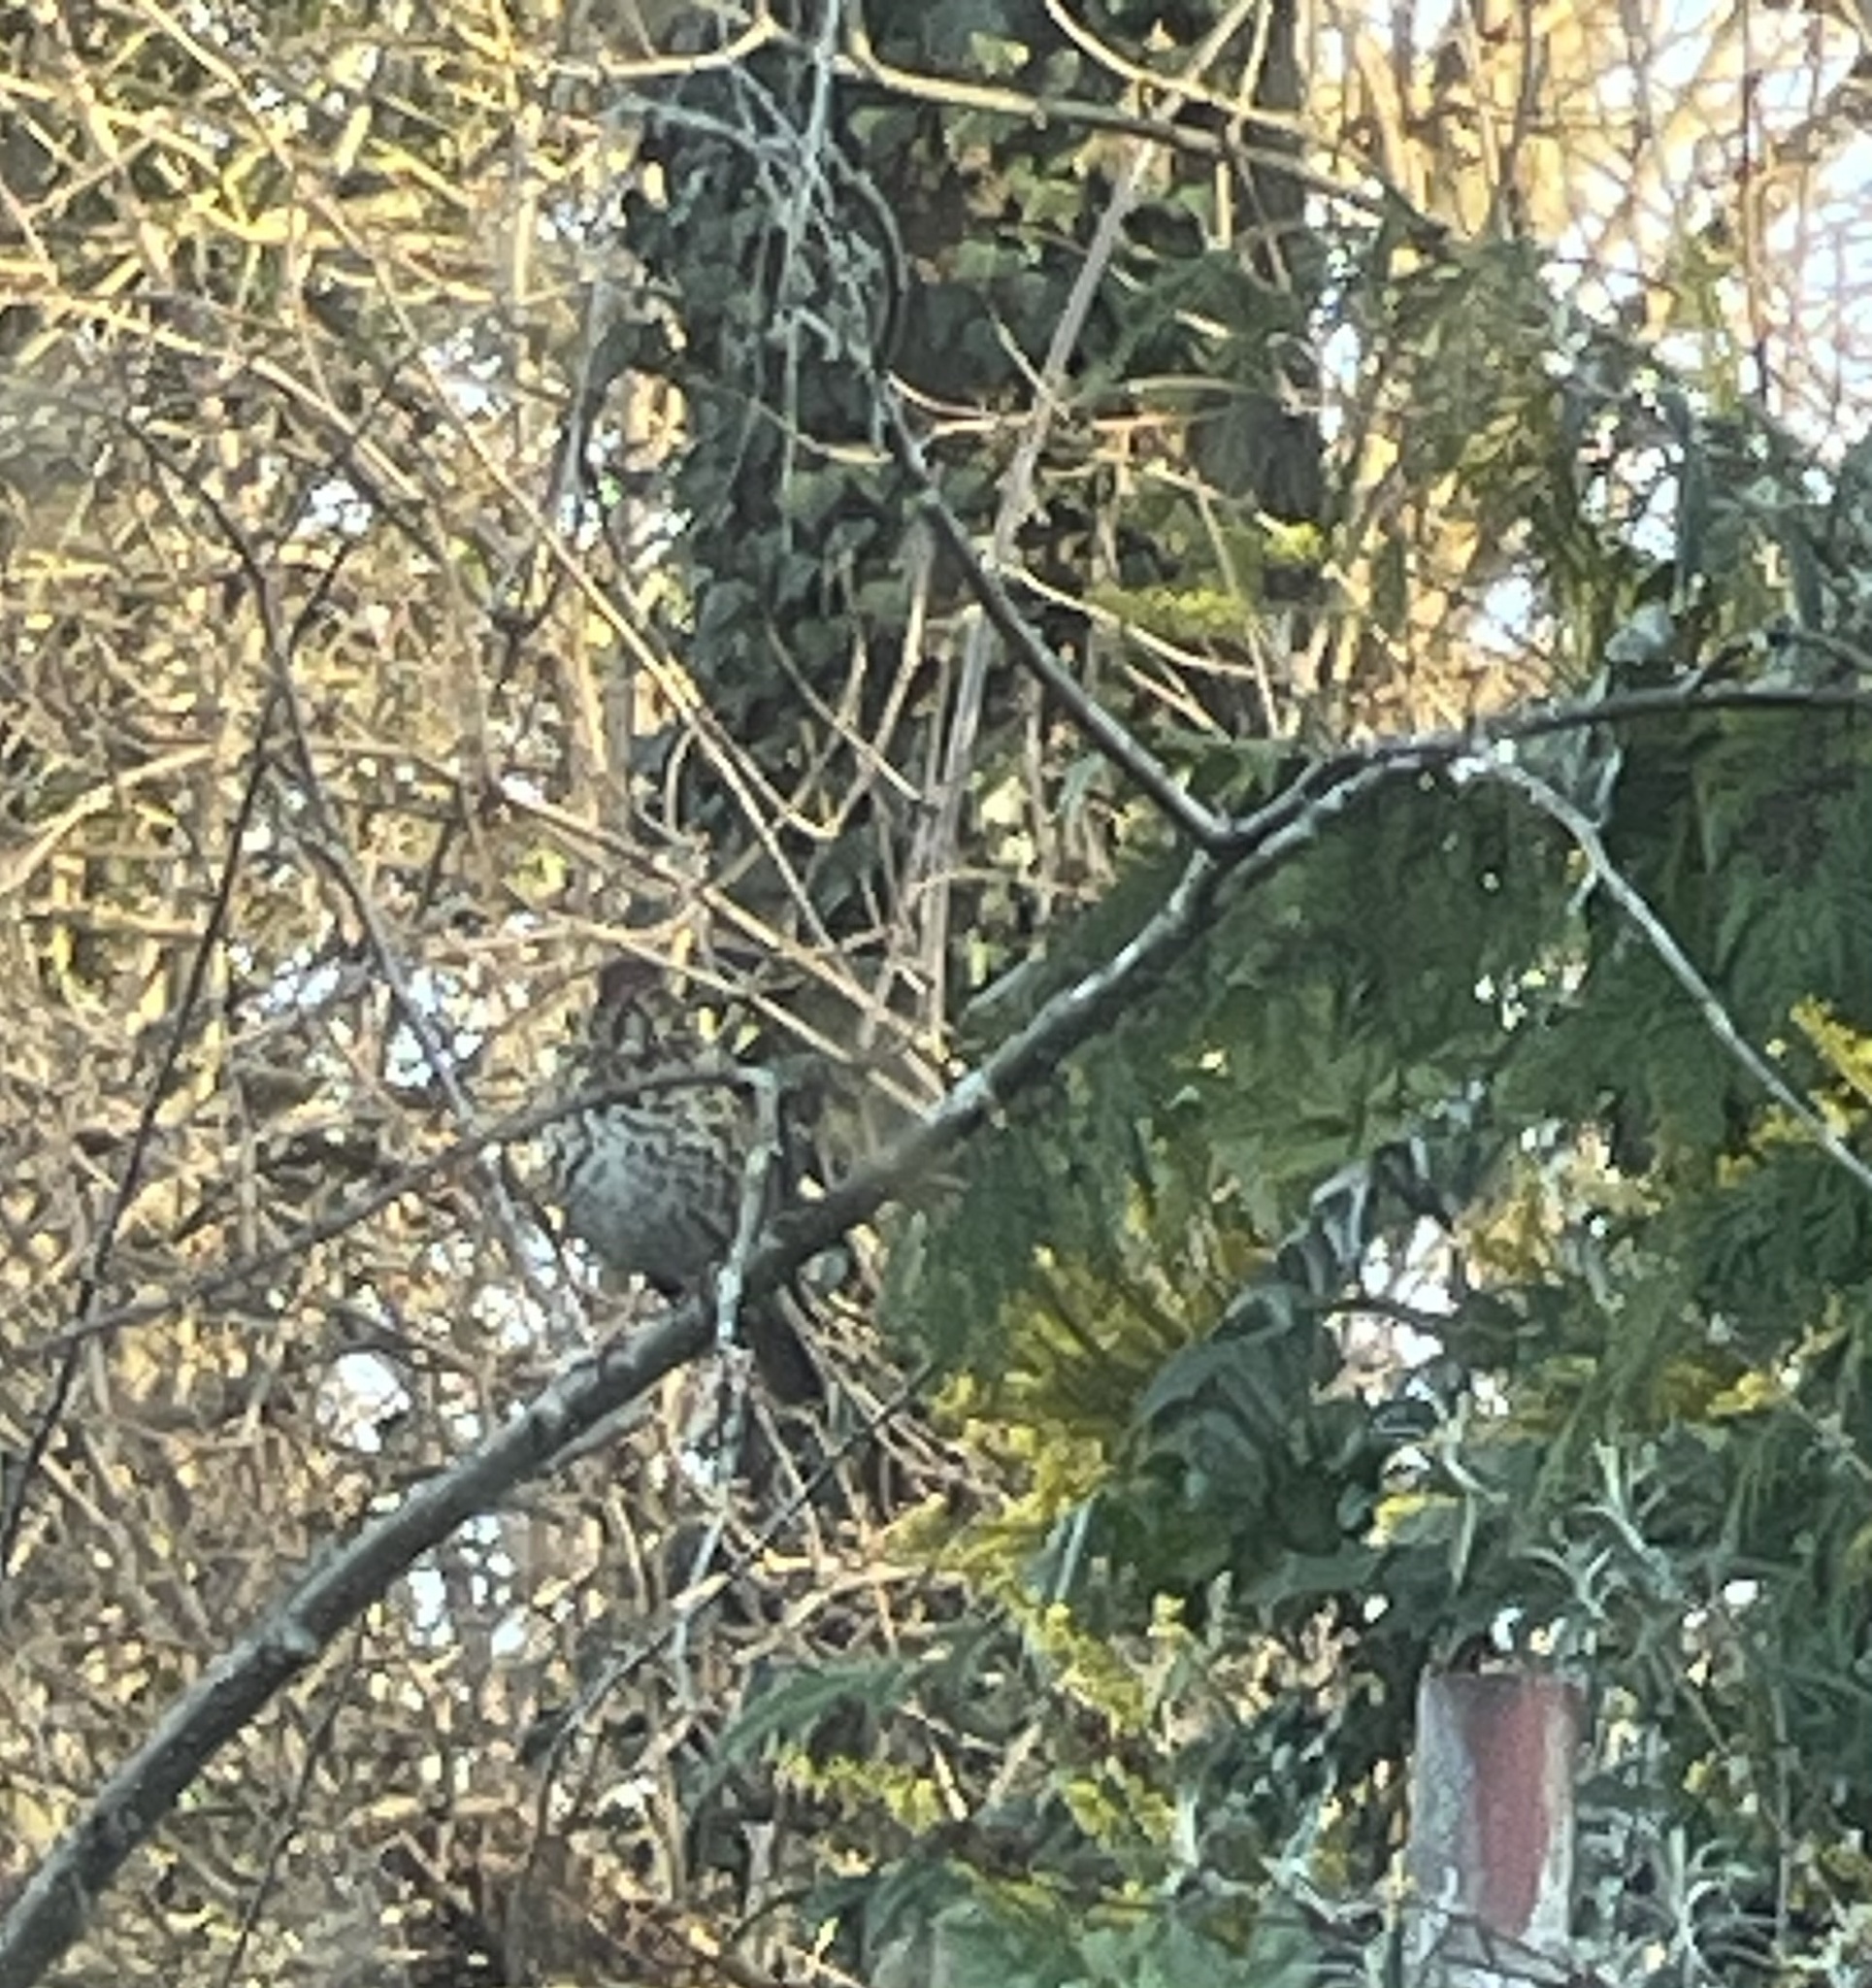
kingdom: Animalia
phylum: Chordata
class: Aves
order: Passeriformes
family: Turdidae
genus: Turdus
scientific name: Turdus philomelos
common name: Song thrush
